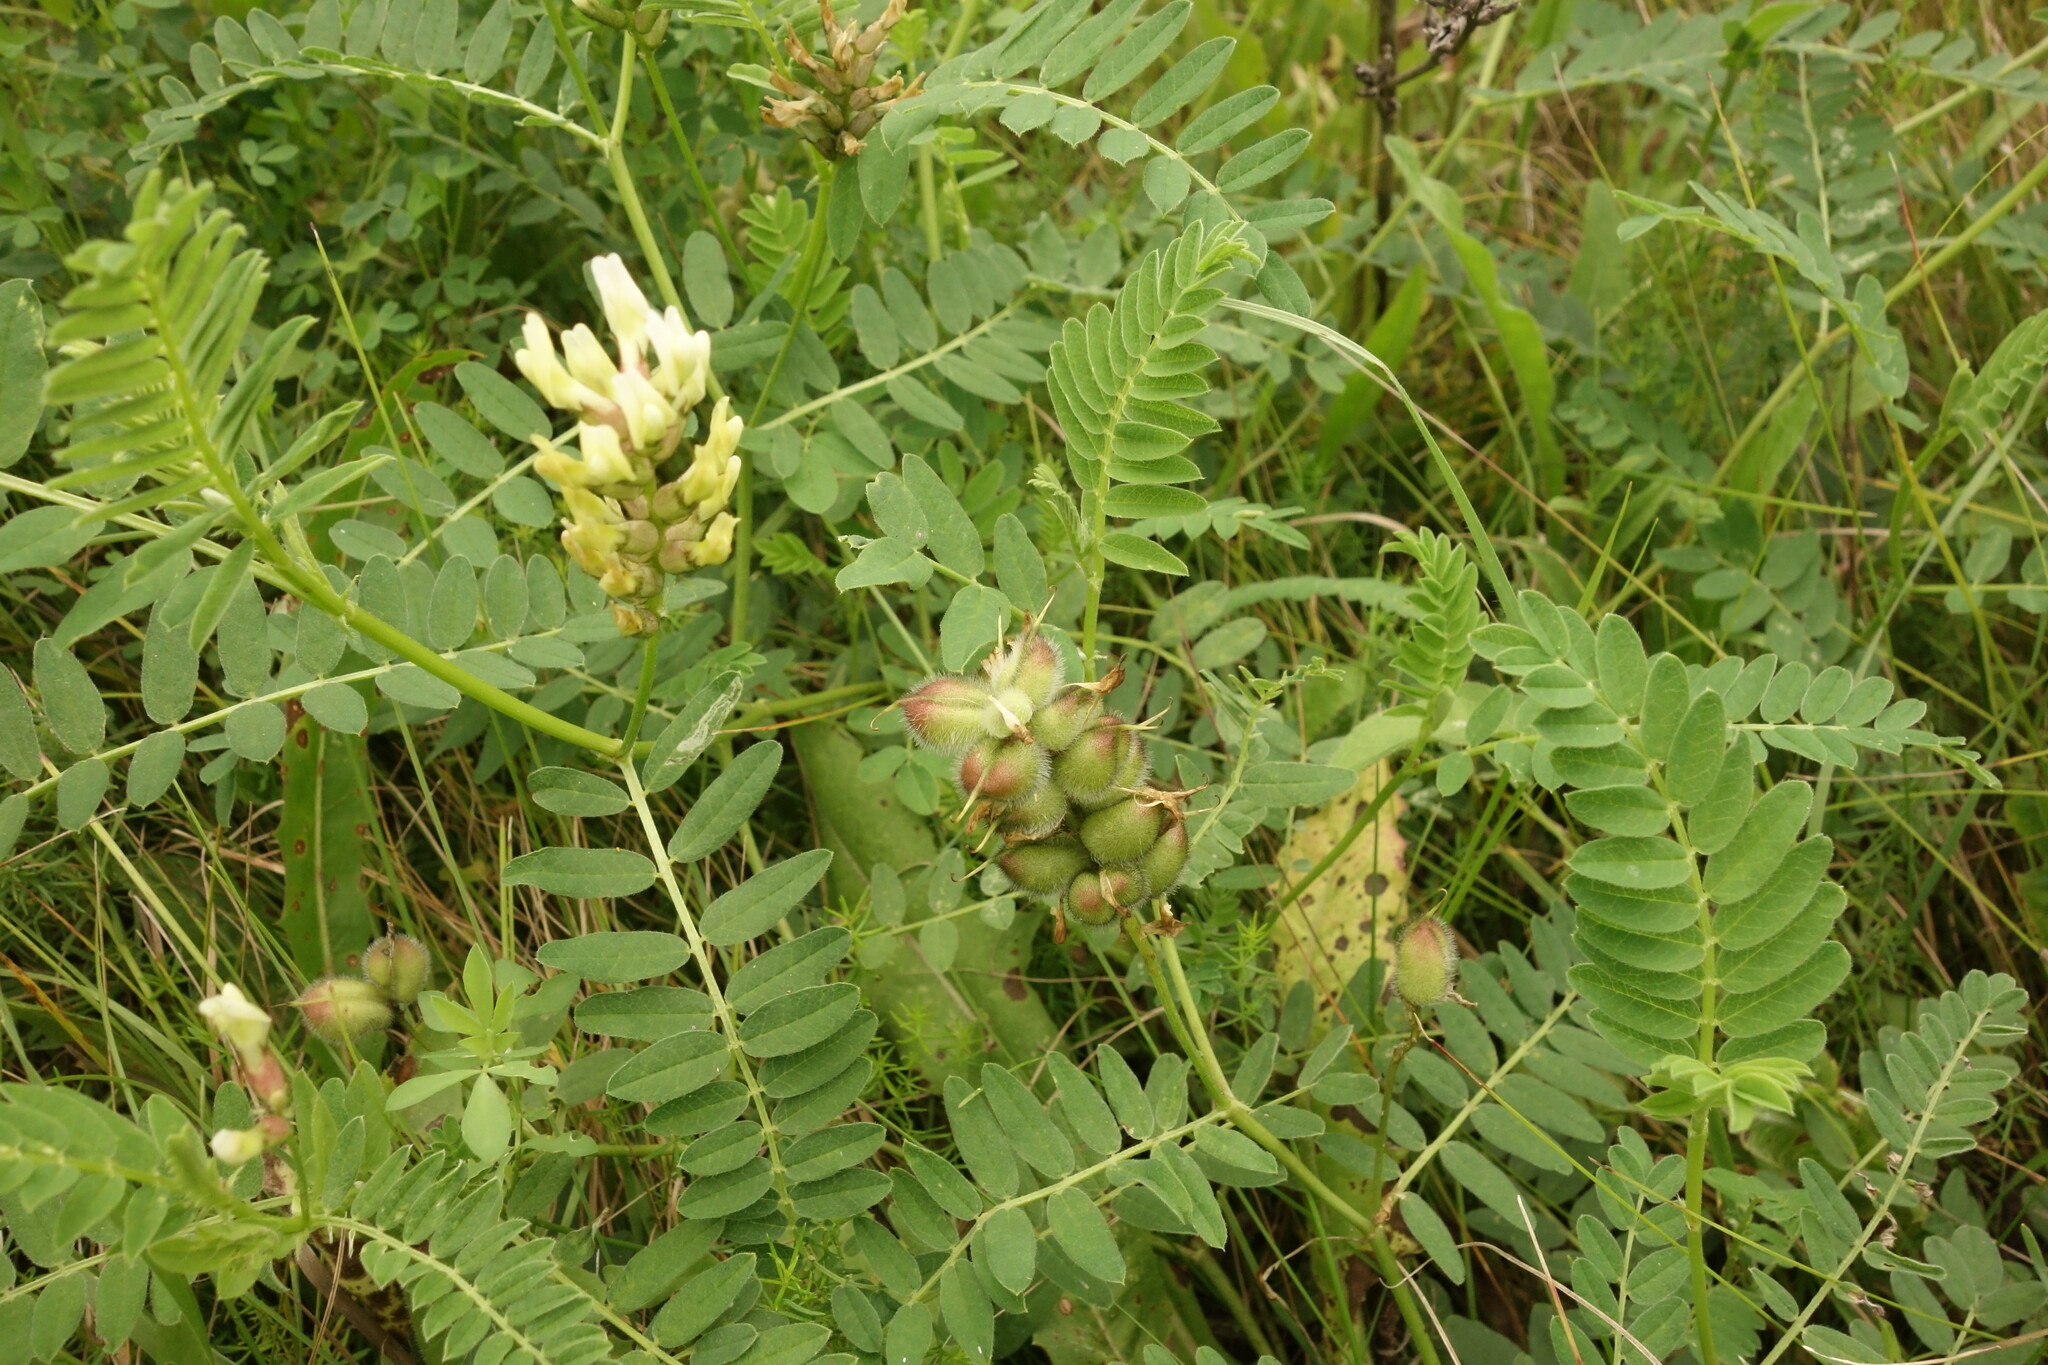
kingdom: Plantae
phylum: Tracheophyta
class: Magnoliopsida
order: Fabales
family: Fabaceae
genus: Astragalus
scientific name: Astragalus cicer
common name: Chick-pea milk-vetch
